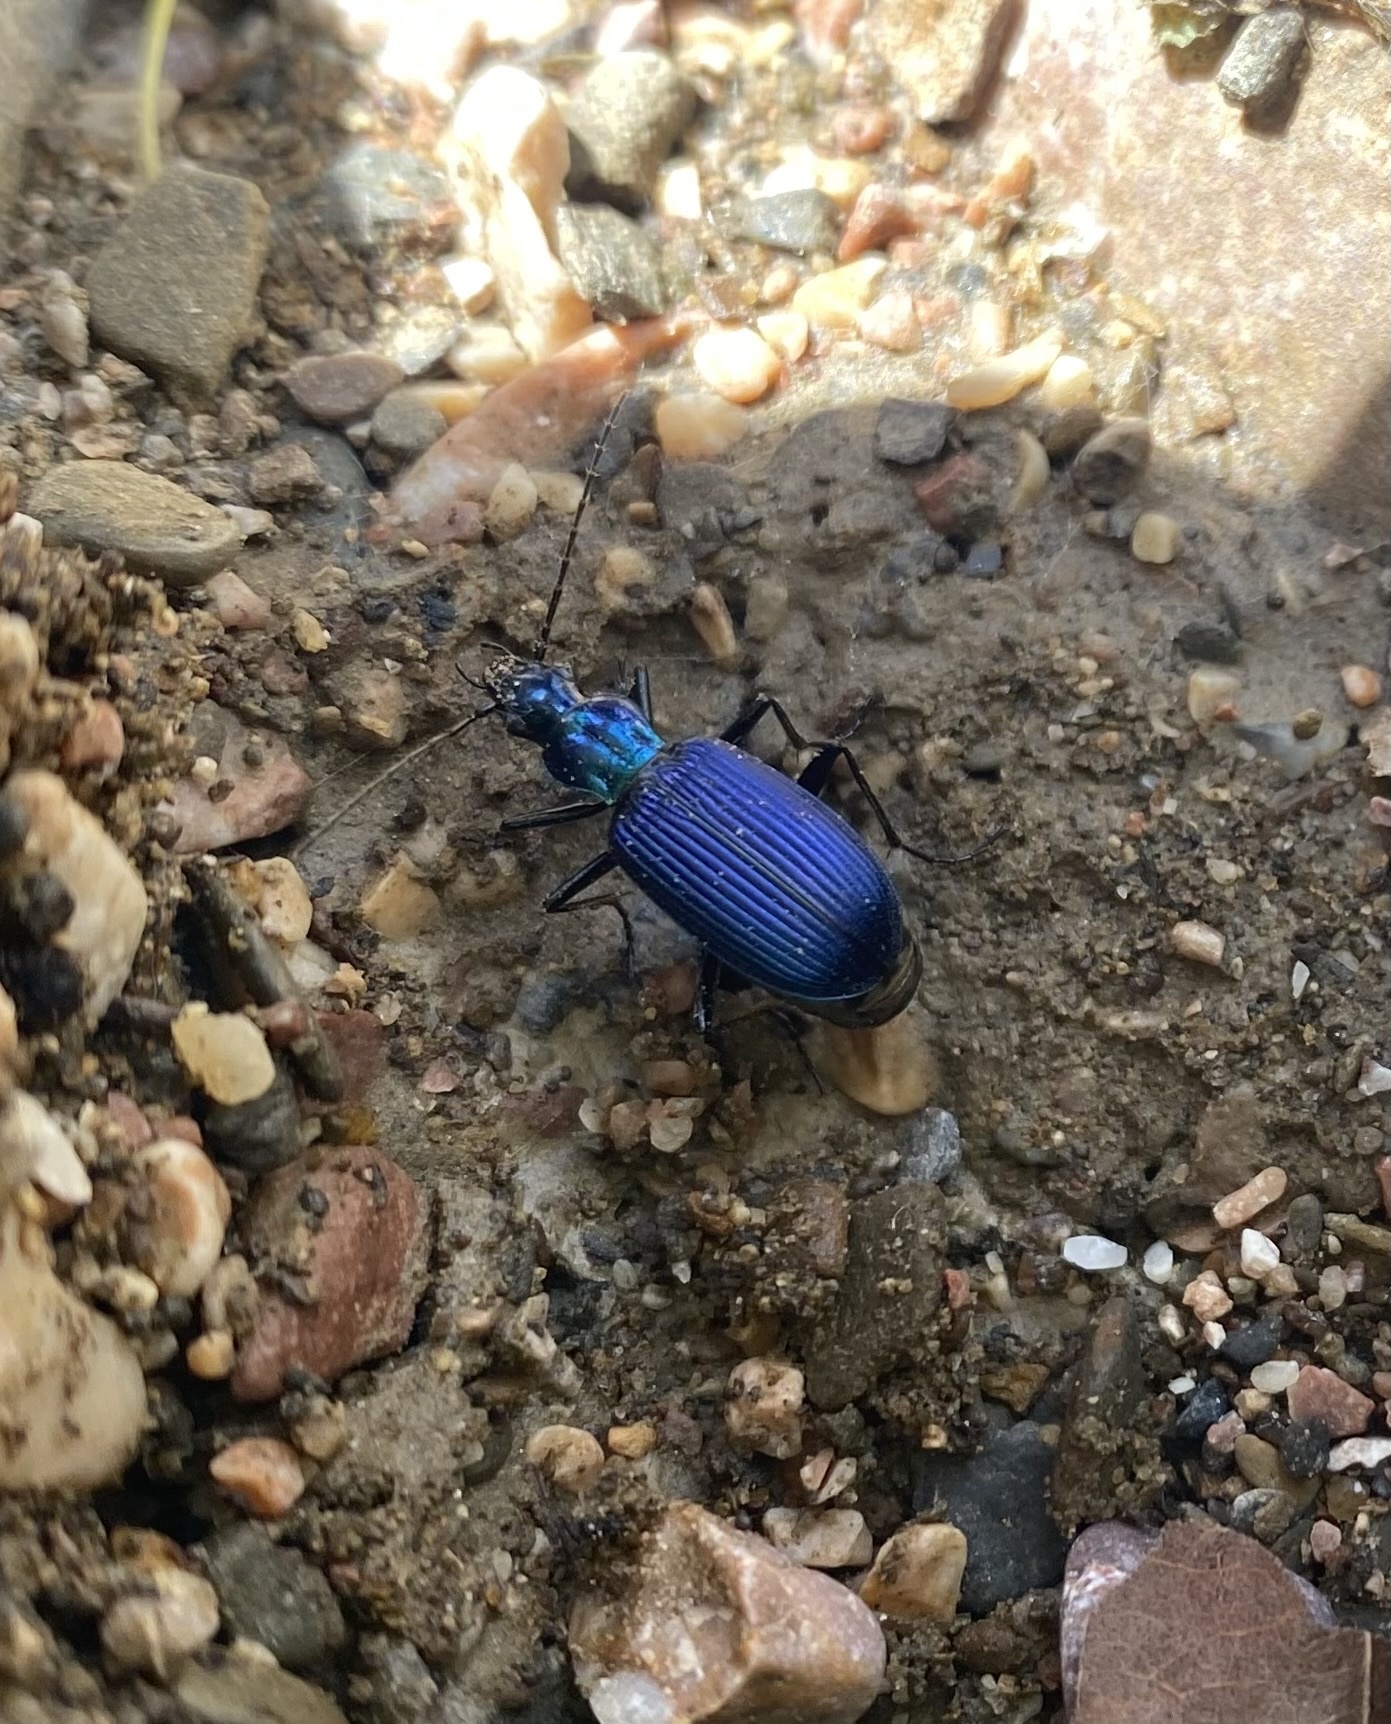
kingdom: Animalia
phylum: Arthropoda
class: Insecta
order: Coleoptera
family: Carabidae
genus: Chlaenius
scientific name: Chlaenius coeruleus
